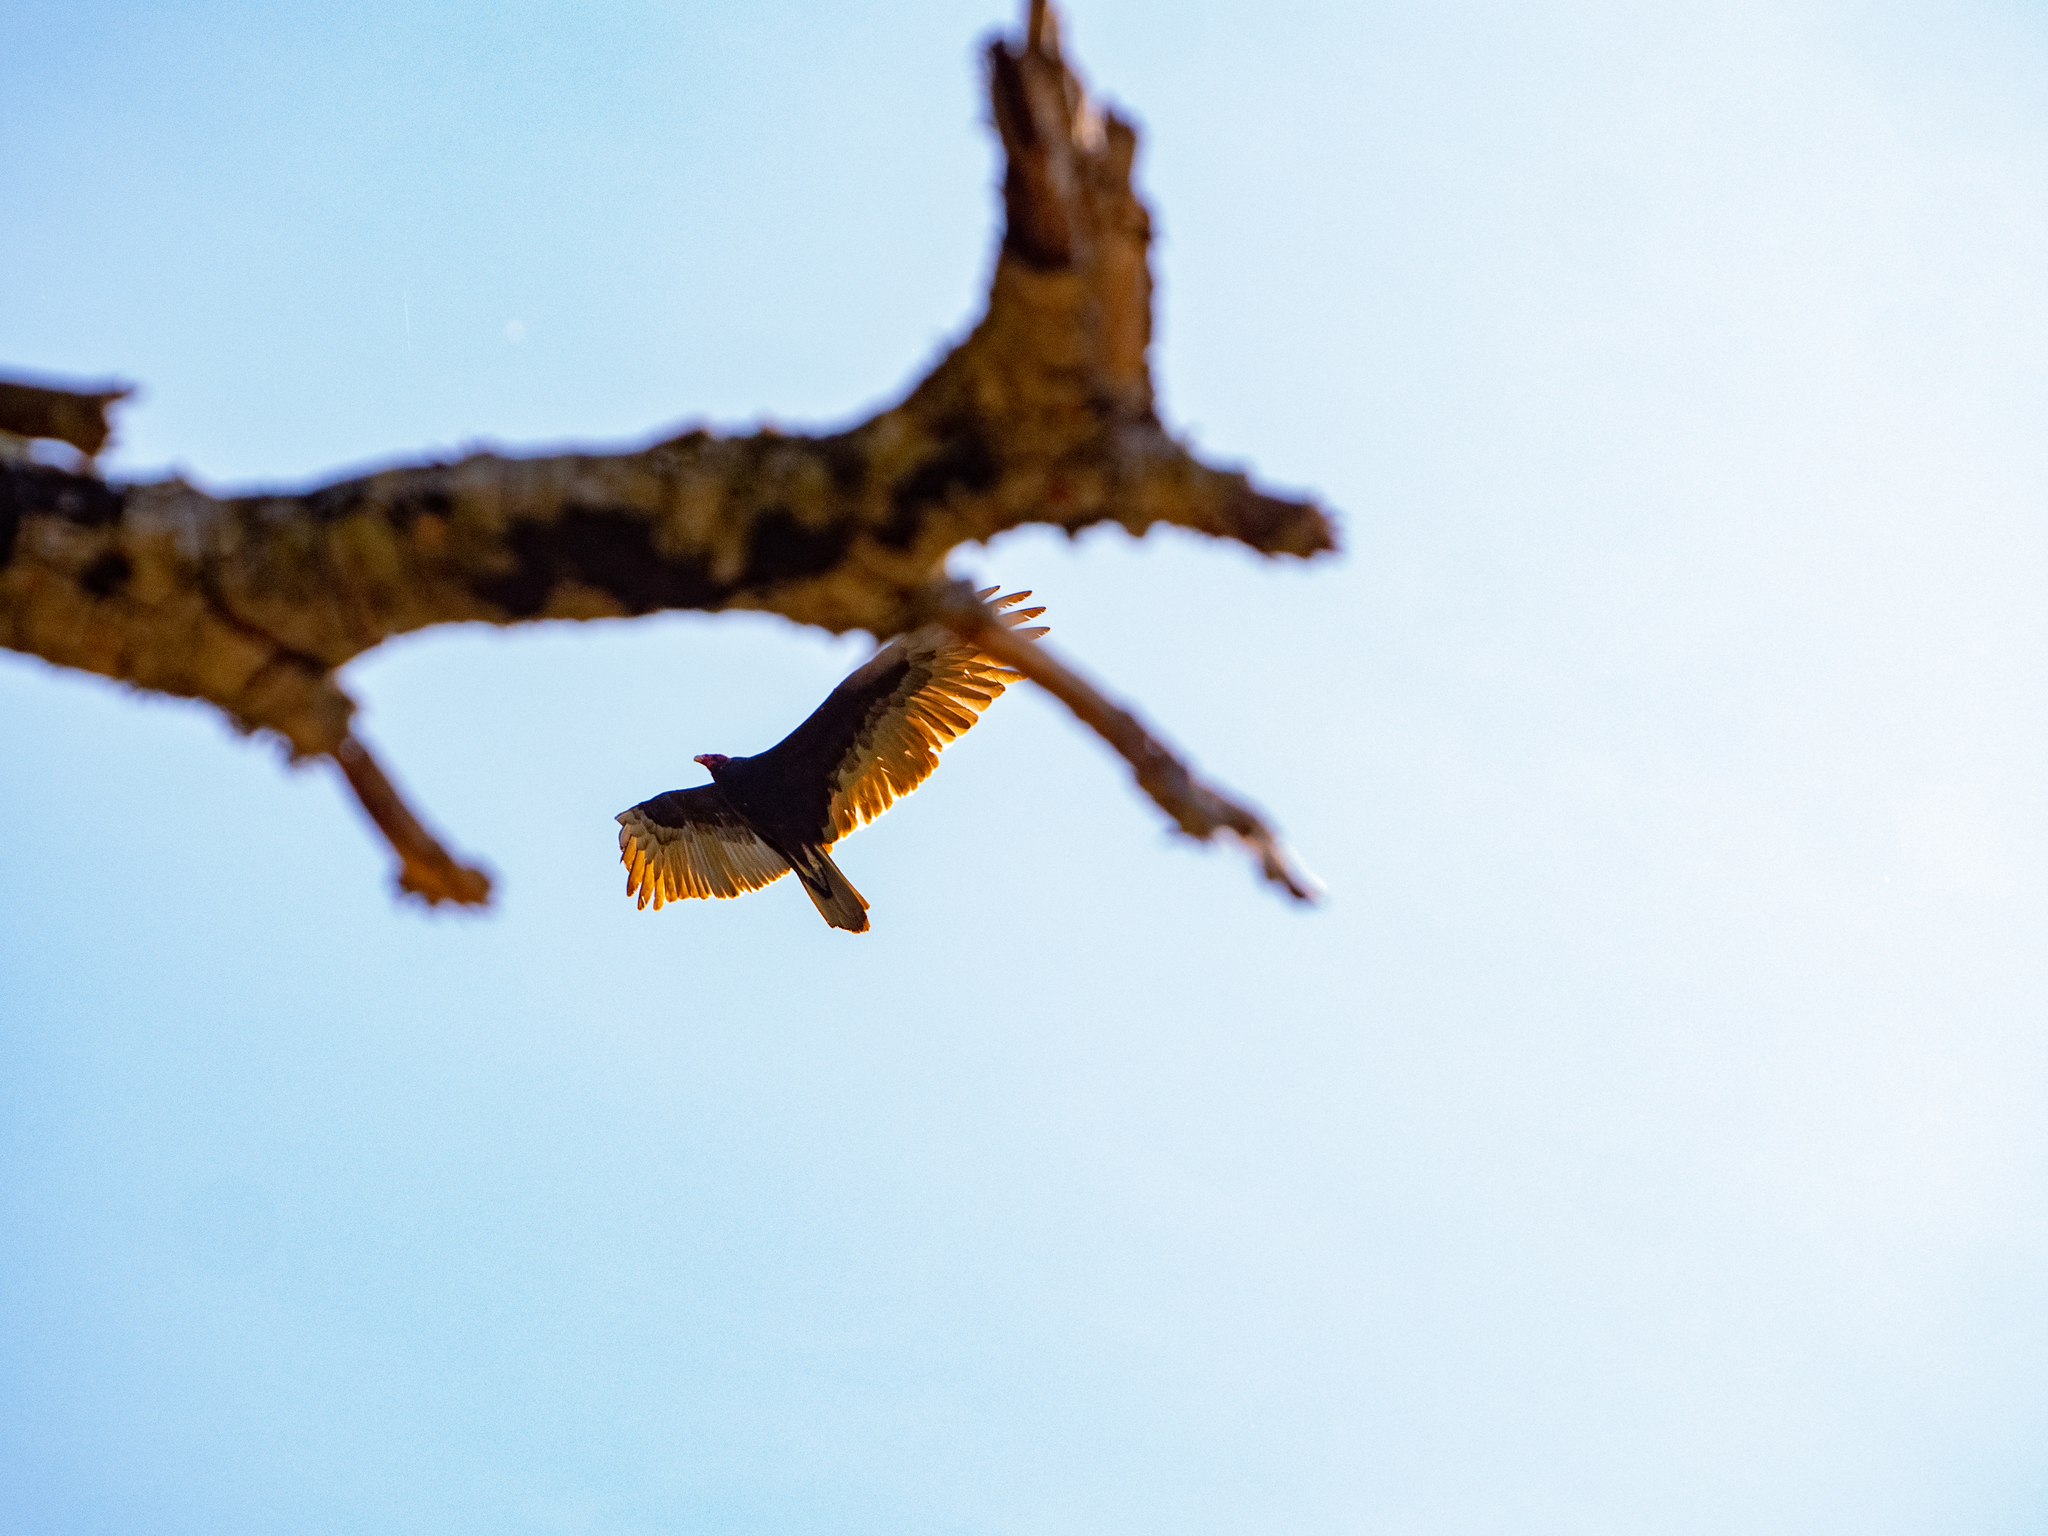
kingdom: Animalia
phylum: Chordata
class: Aves
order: Accipitriformes
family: Cathartidae
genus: Cathartes
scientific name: Cathartes aura
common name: Turkey vulture
